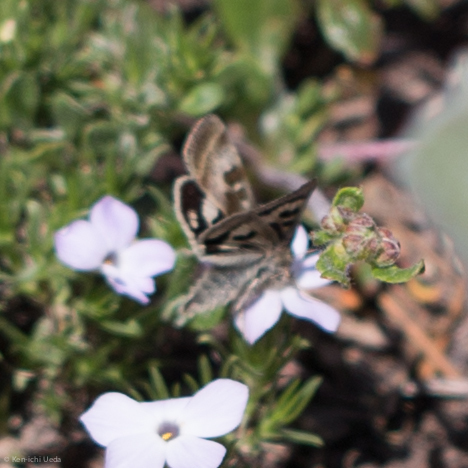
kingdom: Animalia
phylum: Arthropoda
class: Insecta
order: Lepidoptera
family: Noctuidae
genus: Heliothis
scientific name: Heliothis oregonica
